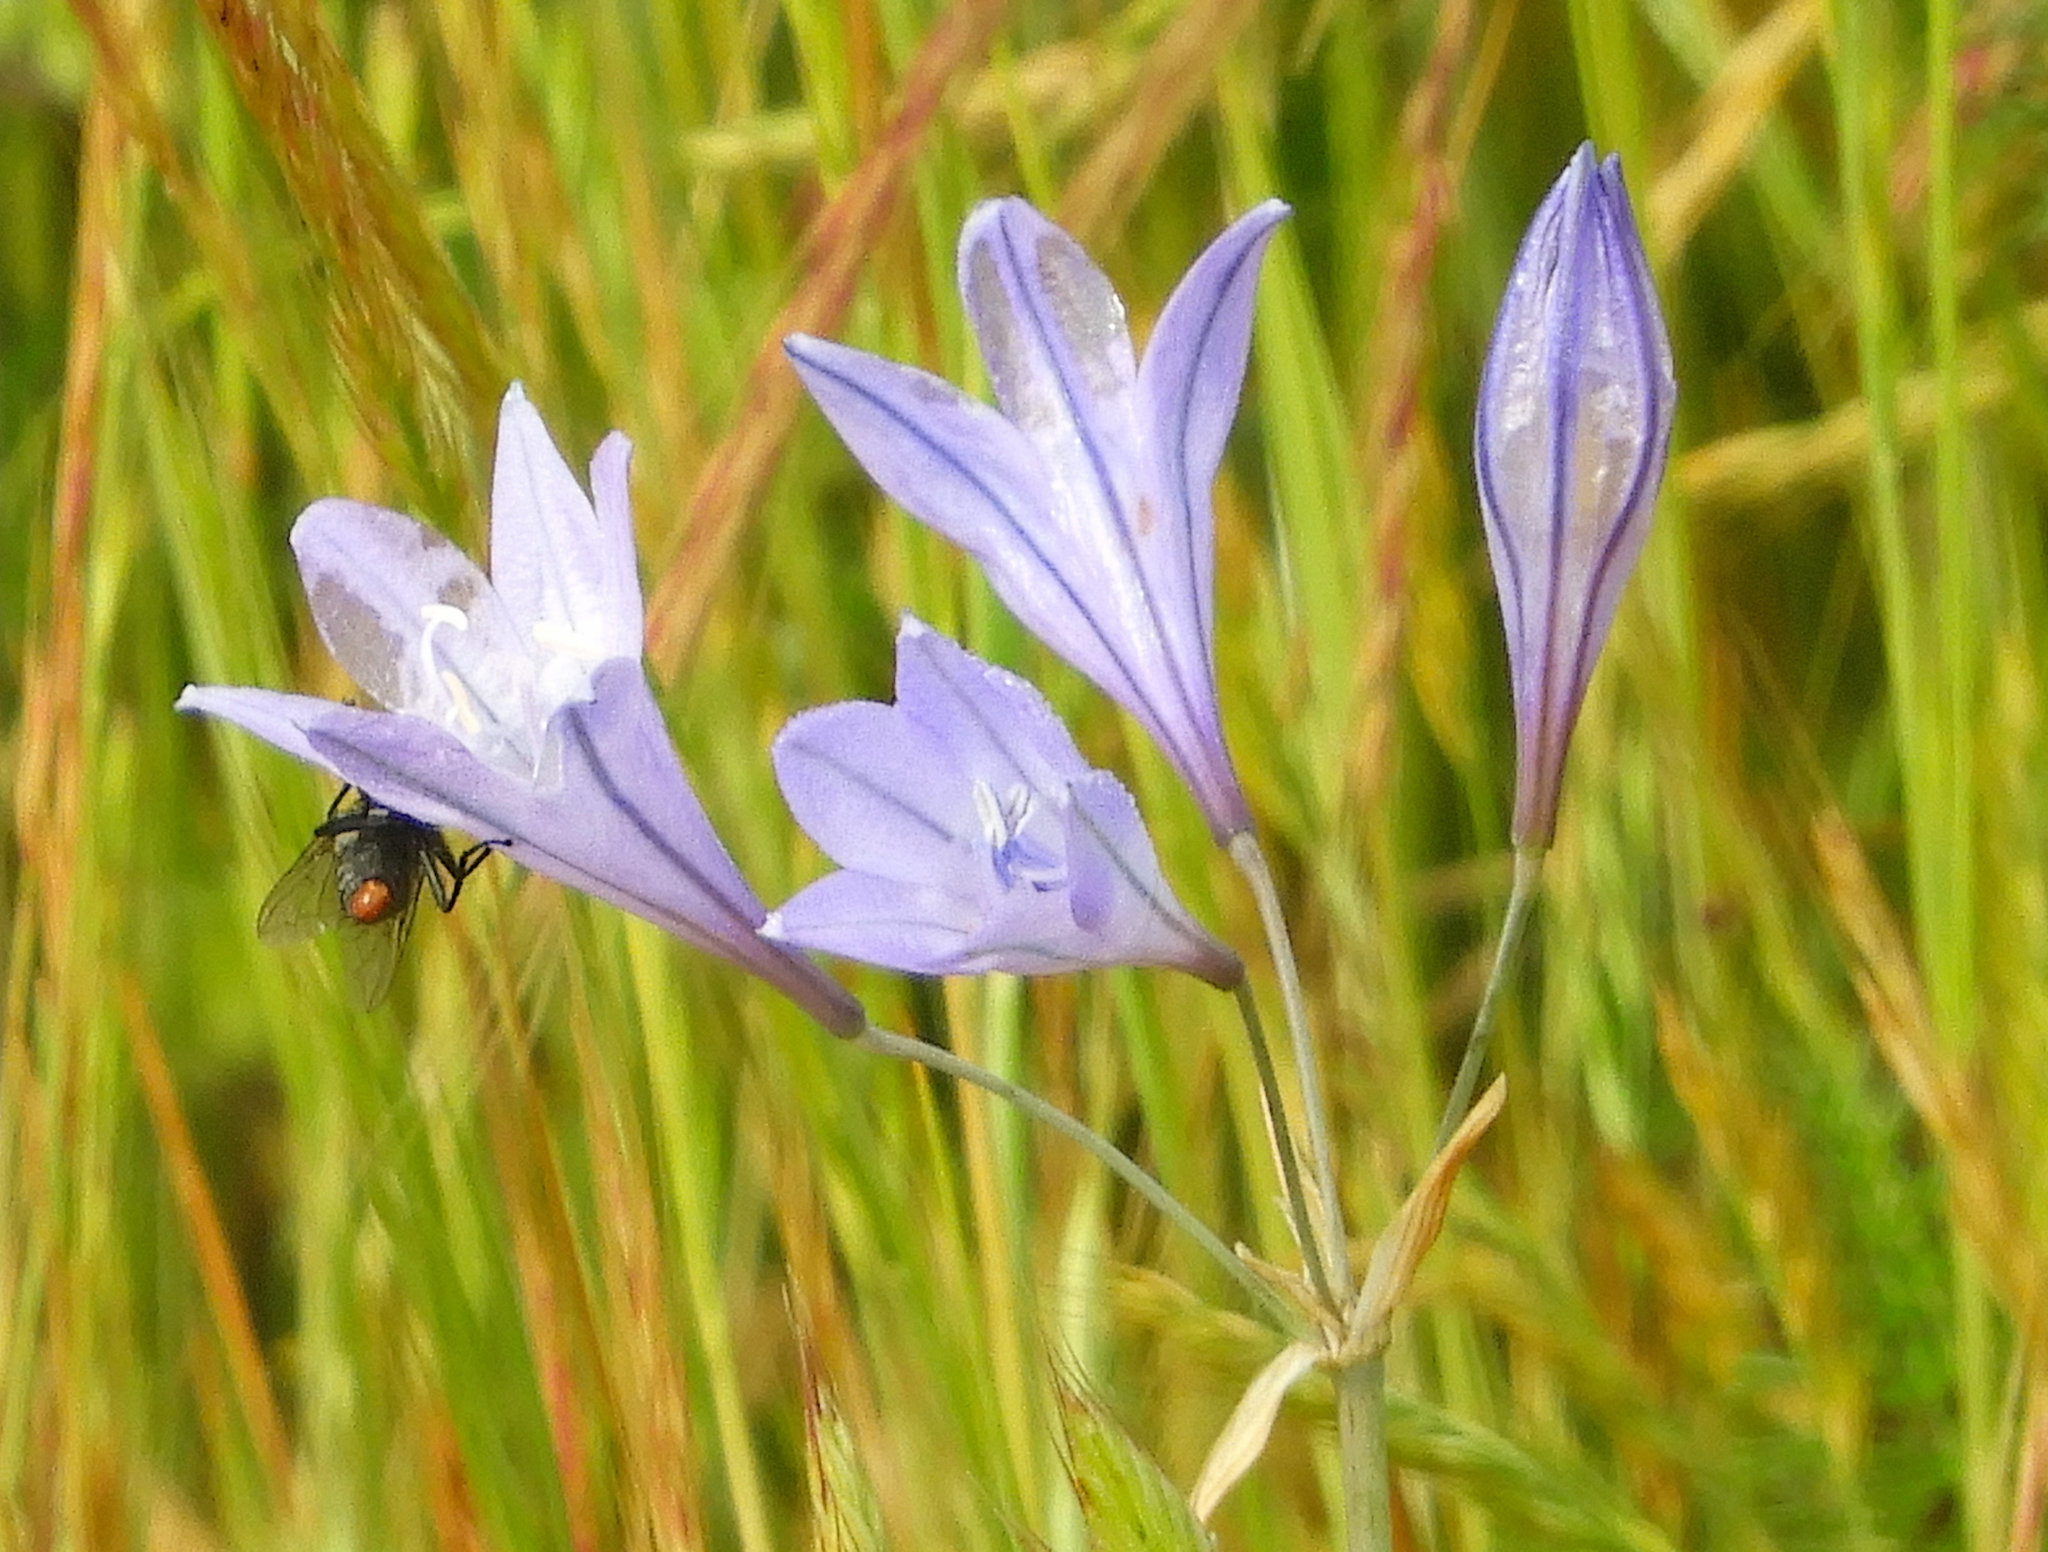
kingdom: Plantae
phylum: Tracheophyta
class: Liliopsida
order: Asparagales
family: Asparagaceae
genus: Triteleia
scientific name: Triteleia laxa
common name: Triplet-lily
